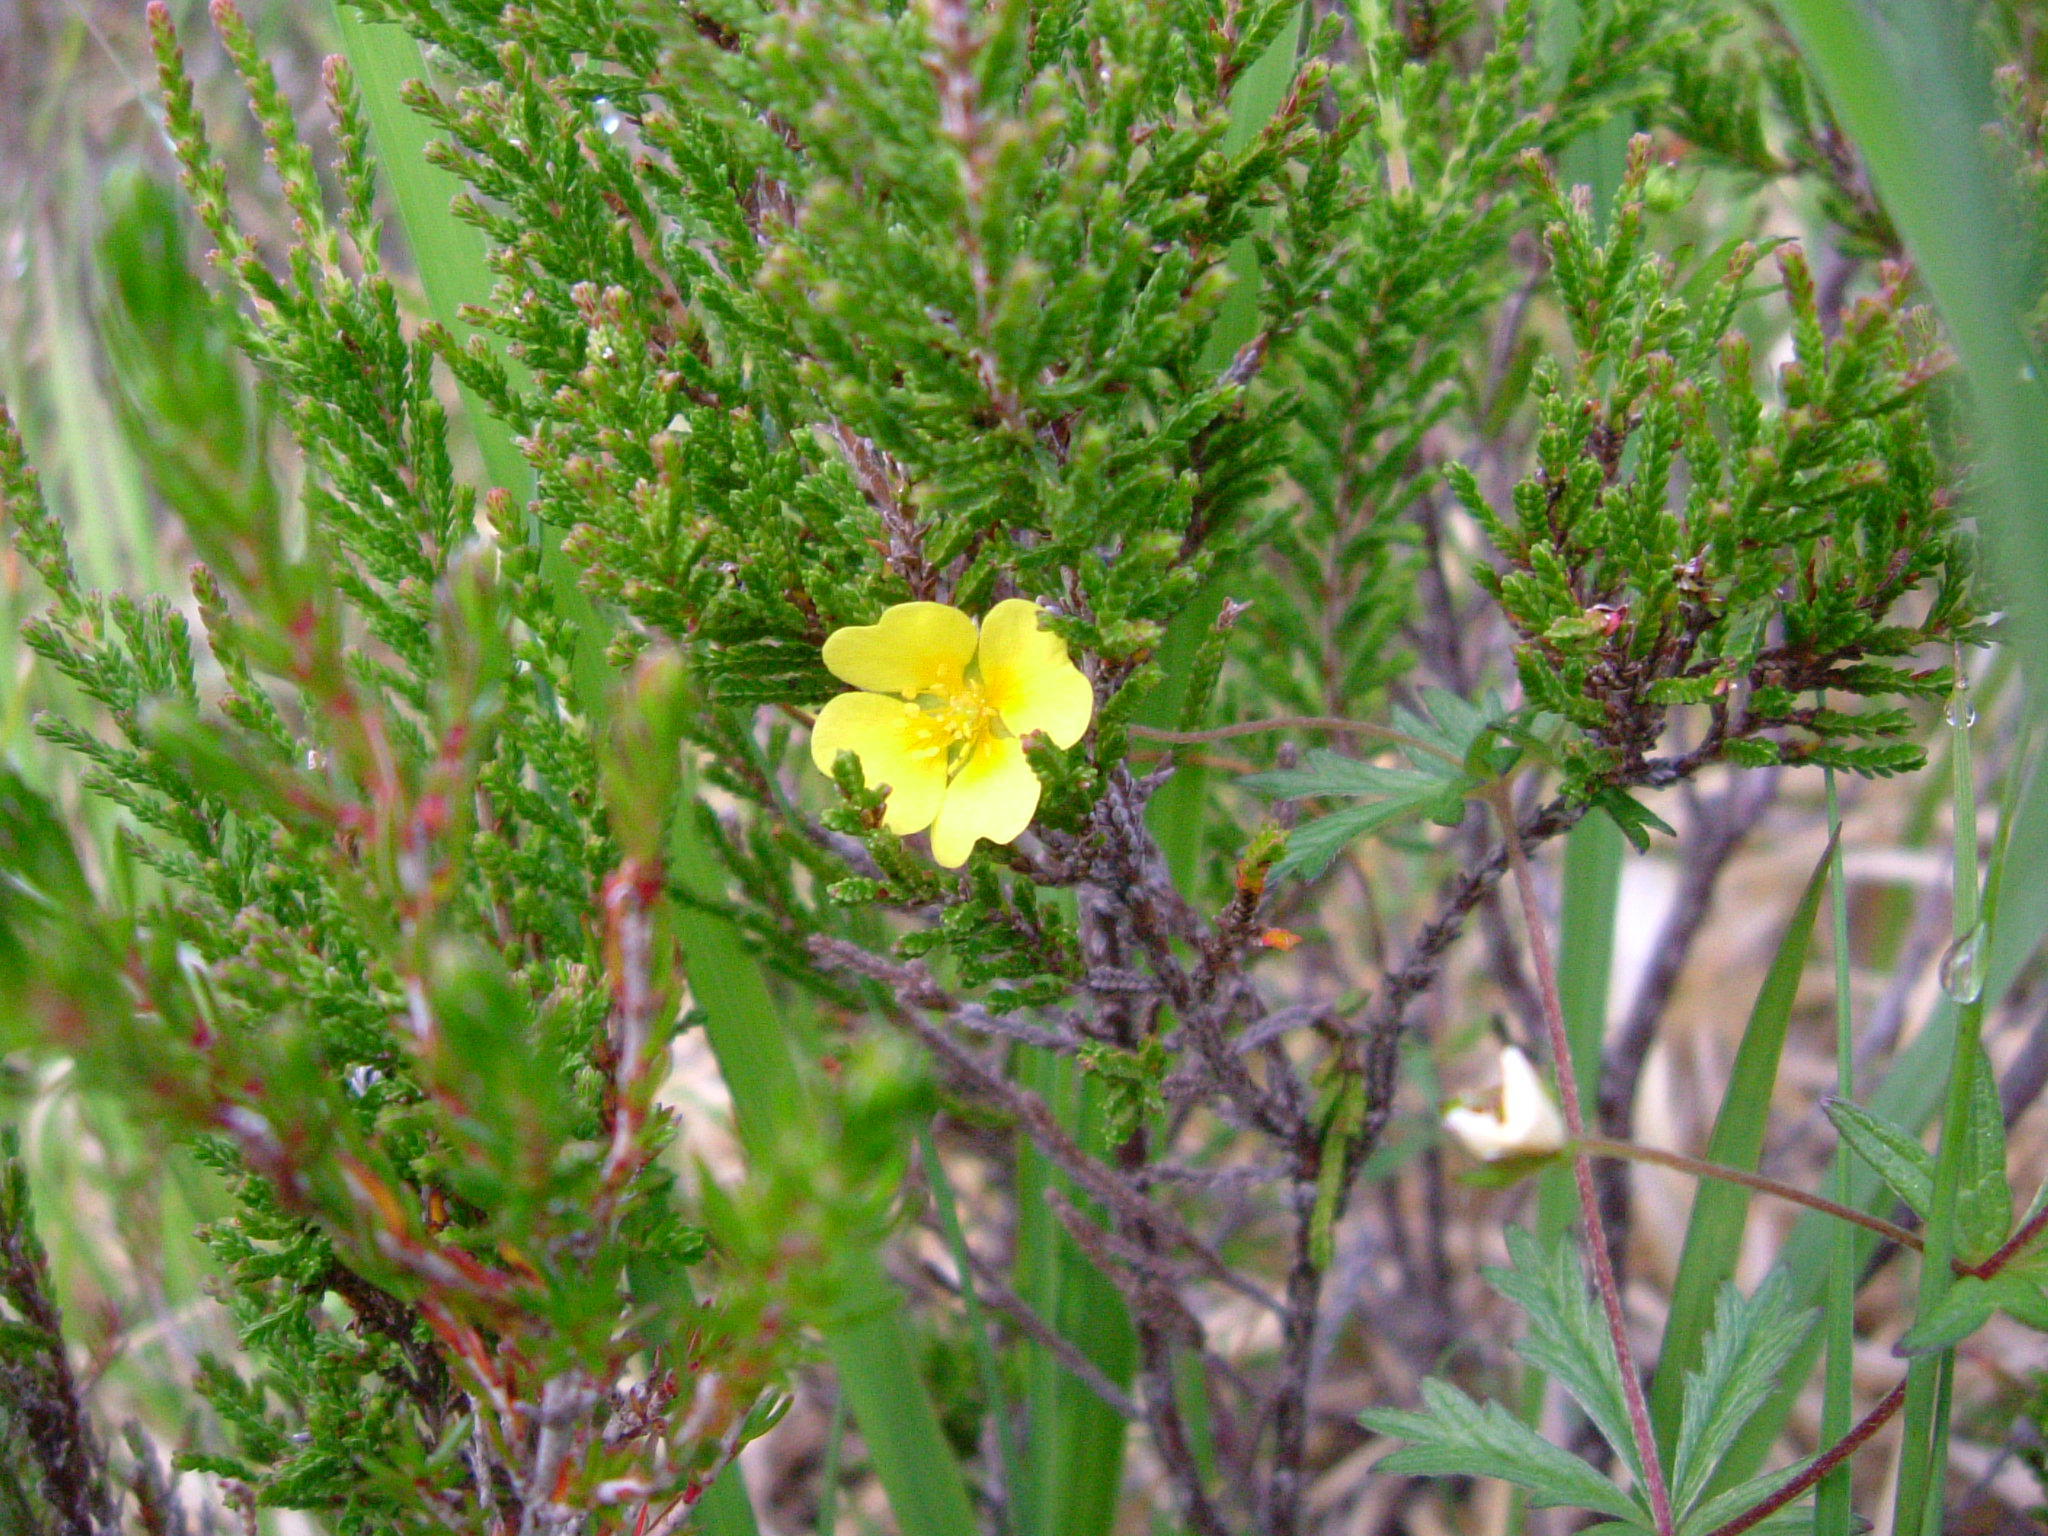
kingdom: Plantae
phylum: Tracheophyta
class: Magnoliopsida
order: Rosales
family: Rosaceae
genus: Potentilla
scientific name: Potentilla erecta
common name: Tormentil
